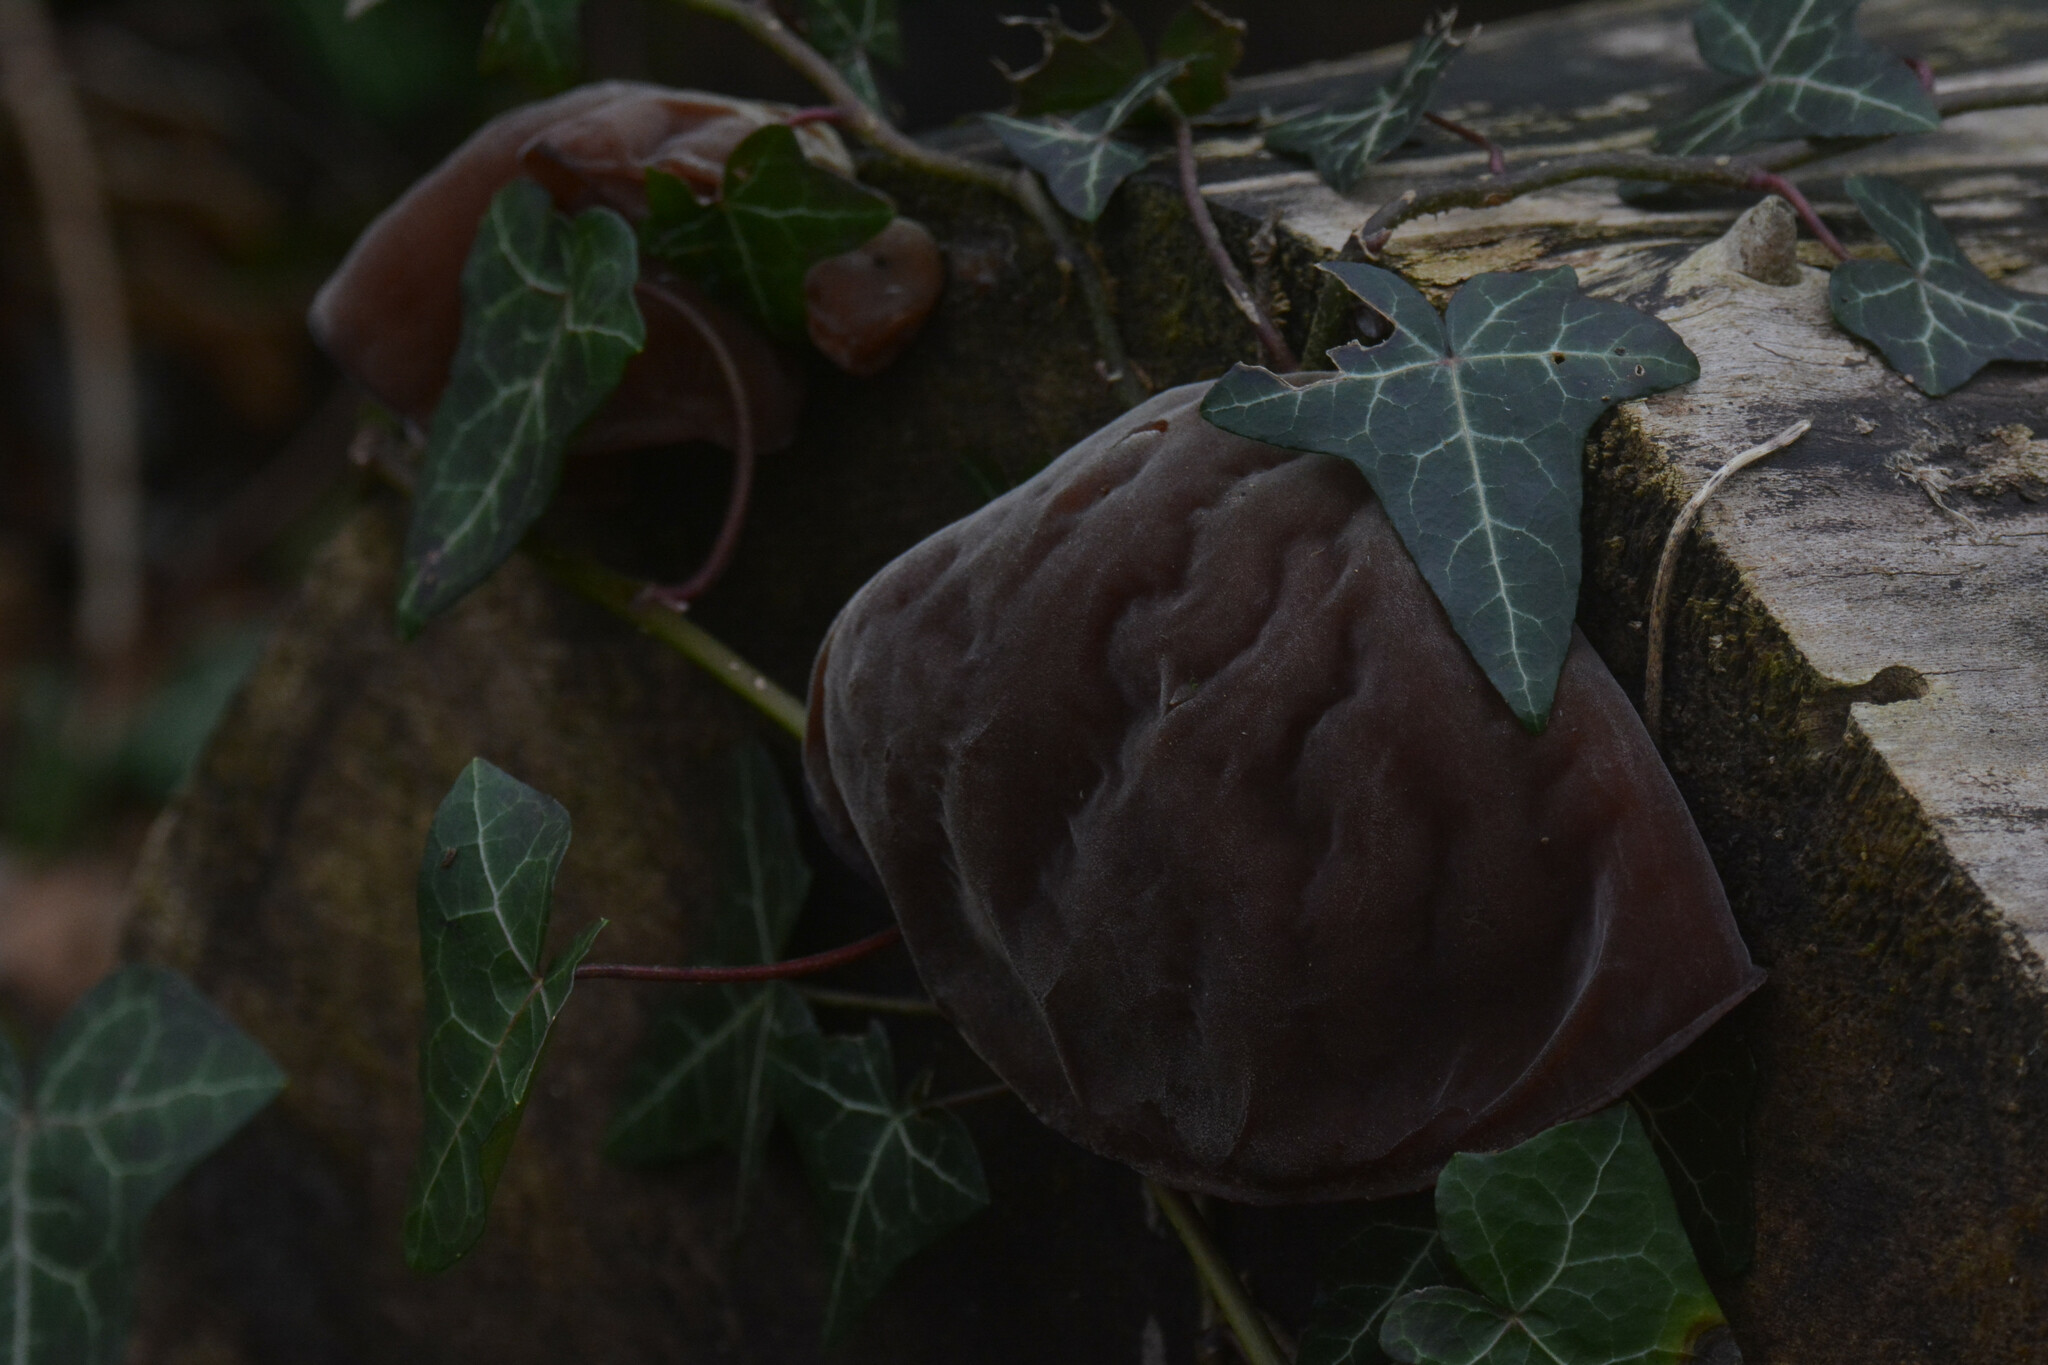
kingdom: Fungi
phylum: Basidiomycota
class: Agaricomycetes
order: Auriculariales
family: Auriculariaceae
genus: Auricularia
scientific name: Auricularia auricula-judae
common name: Jelly ear
